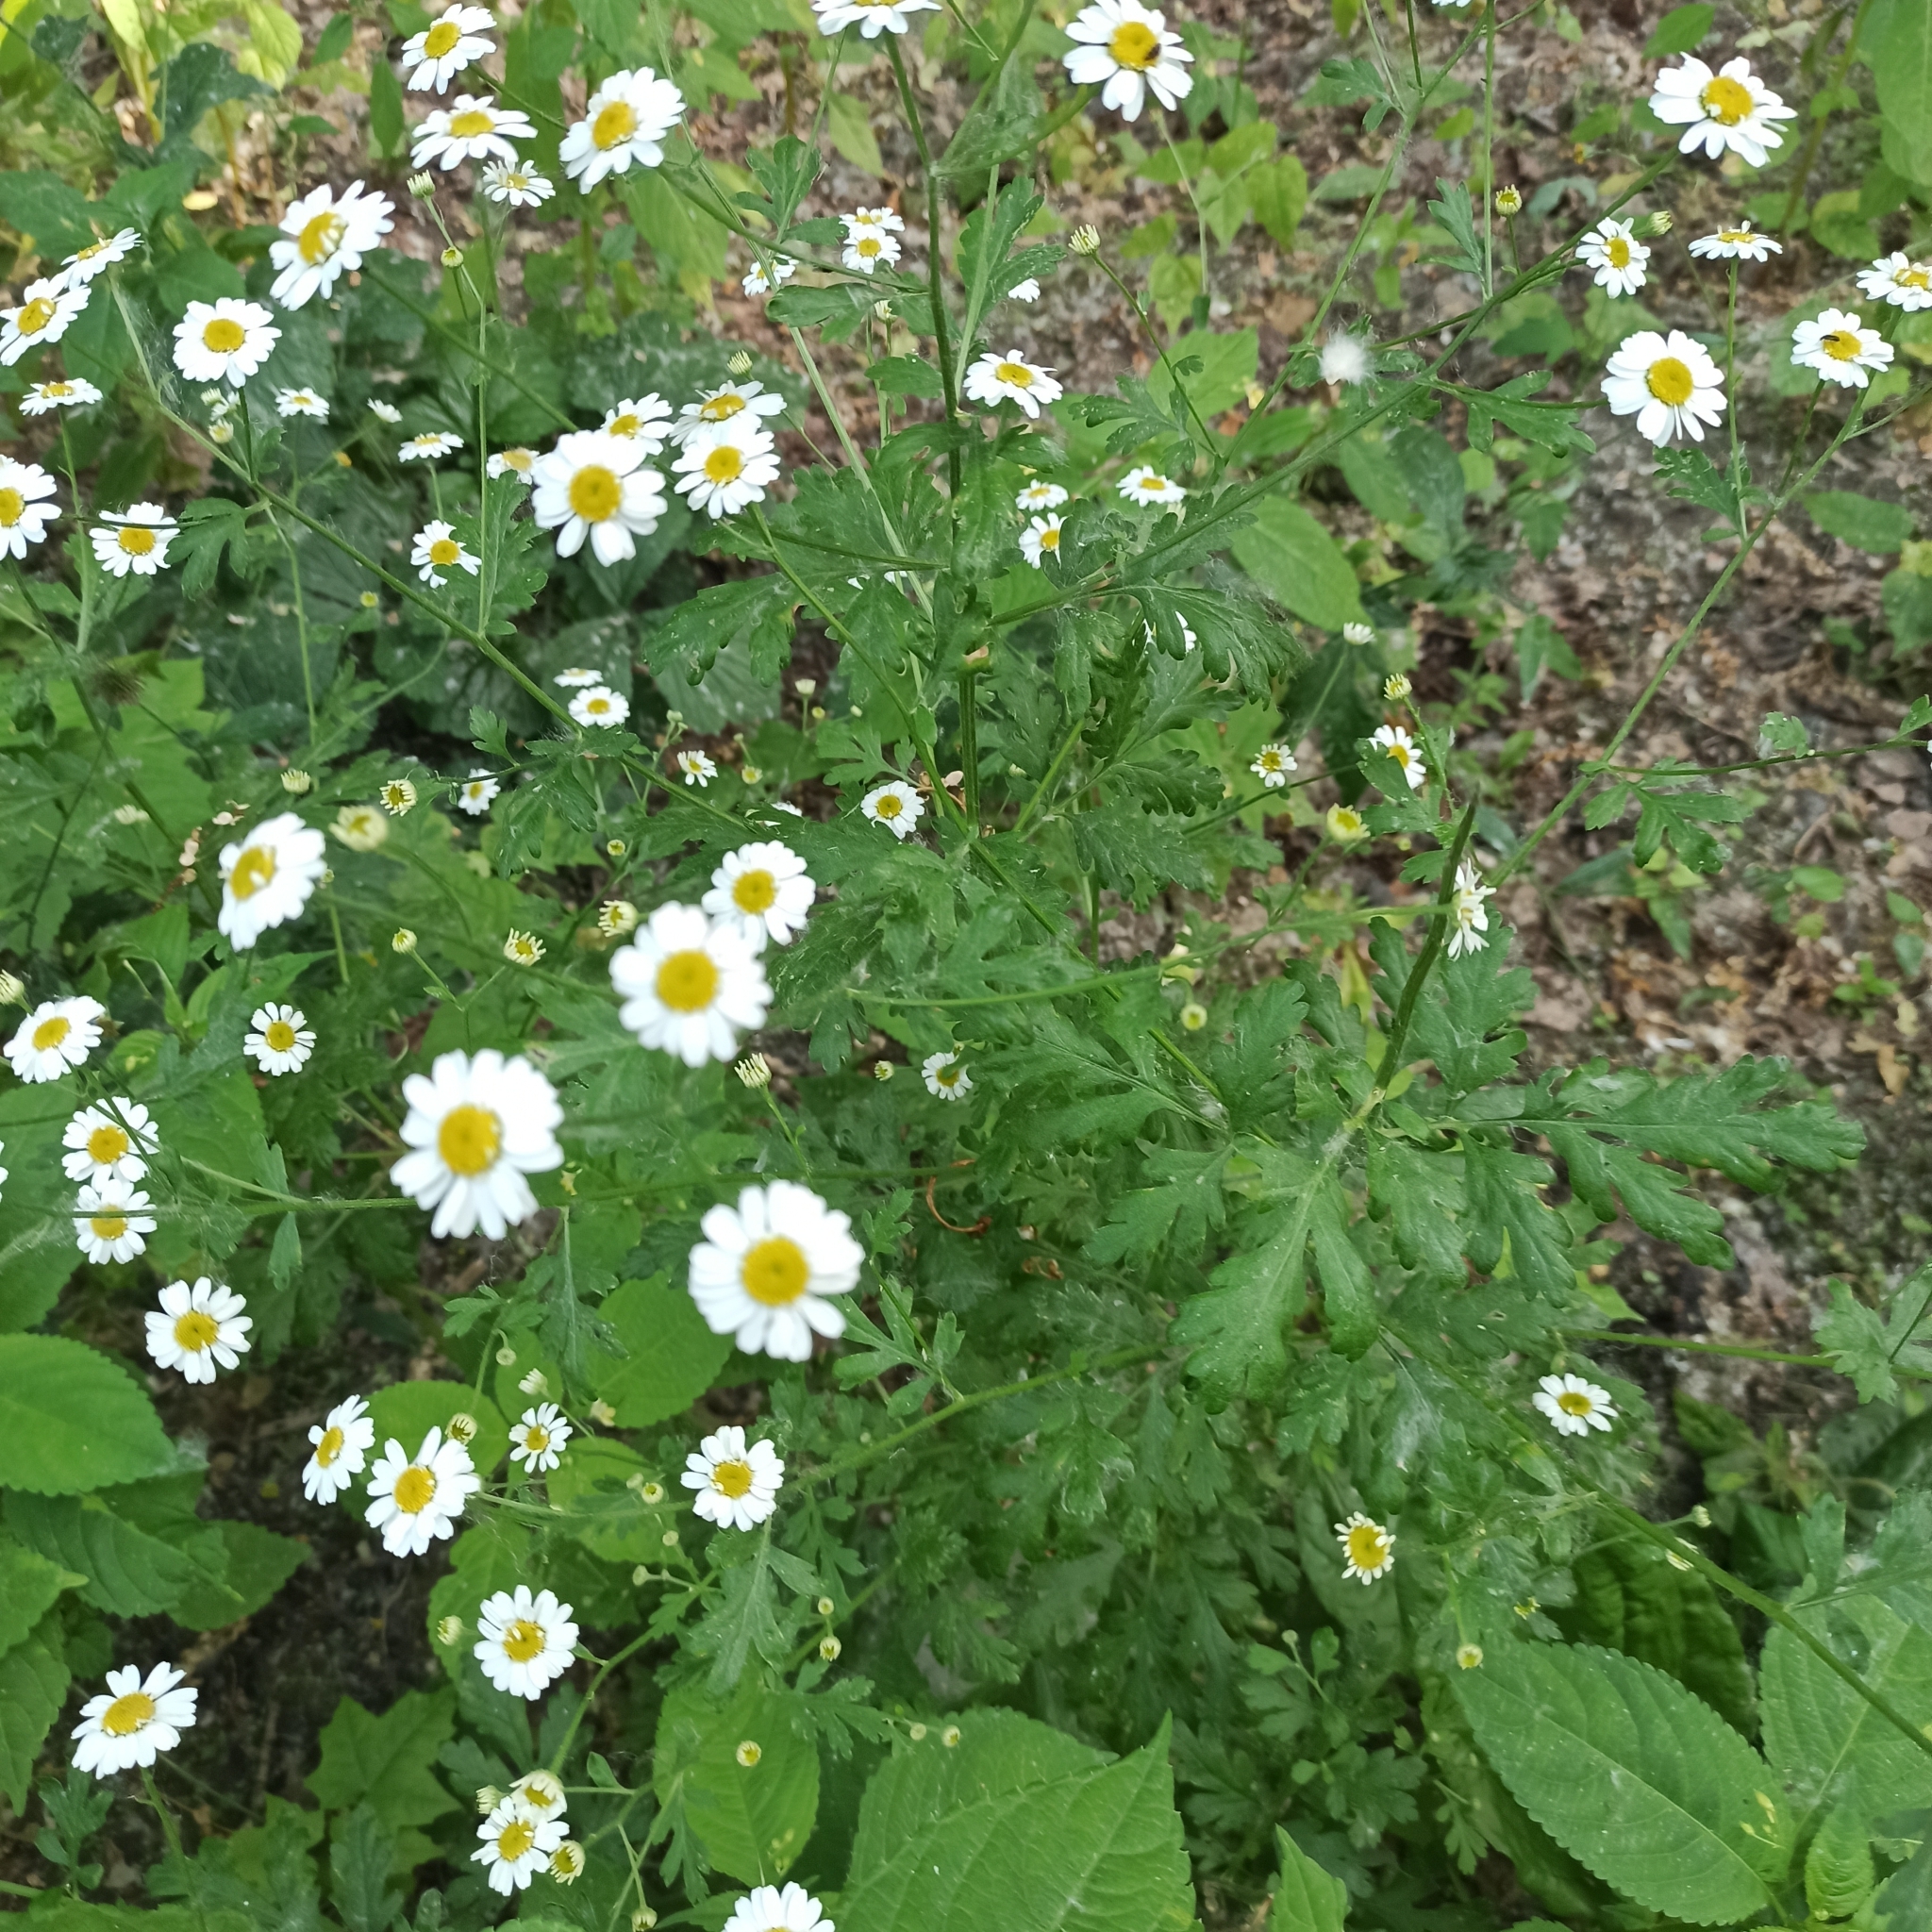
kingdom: Plantae
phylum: Tracheophyta
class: Magnoliopsida
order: Asterales
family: Asteraceae
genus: Tanacetum
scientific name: Tanacetum parthenium
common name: Feverfew
